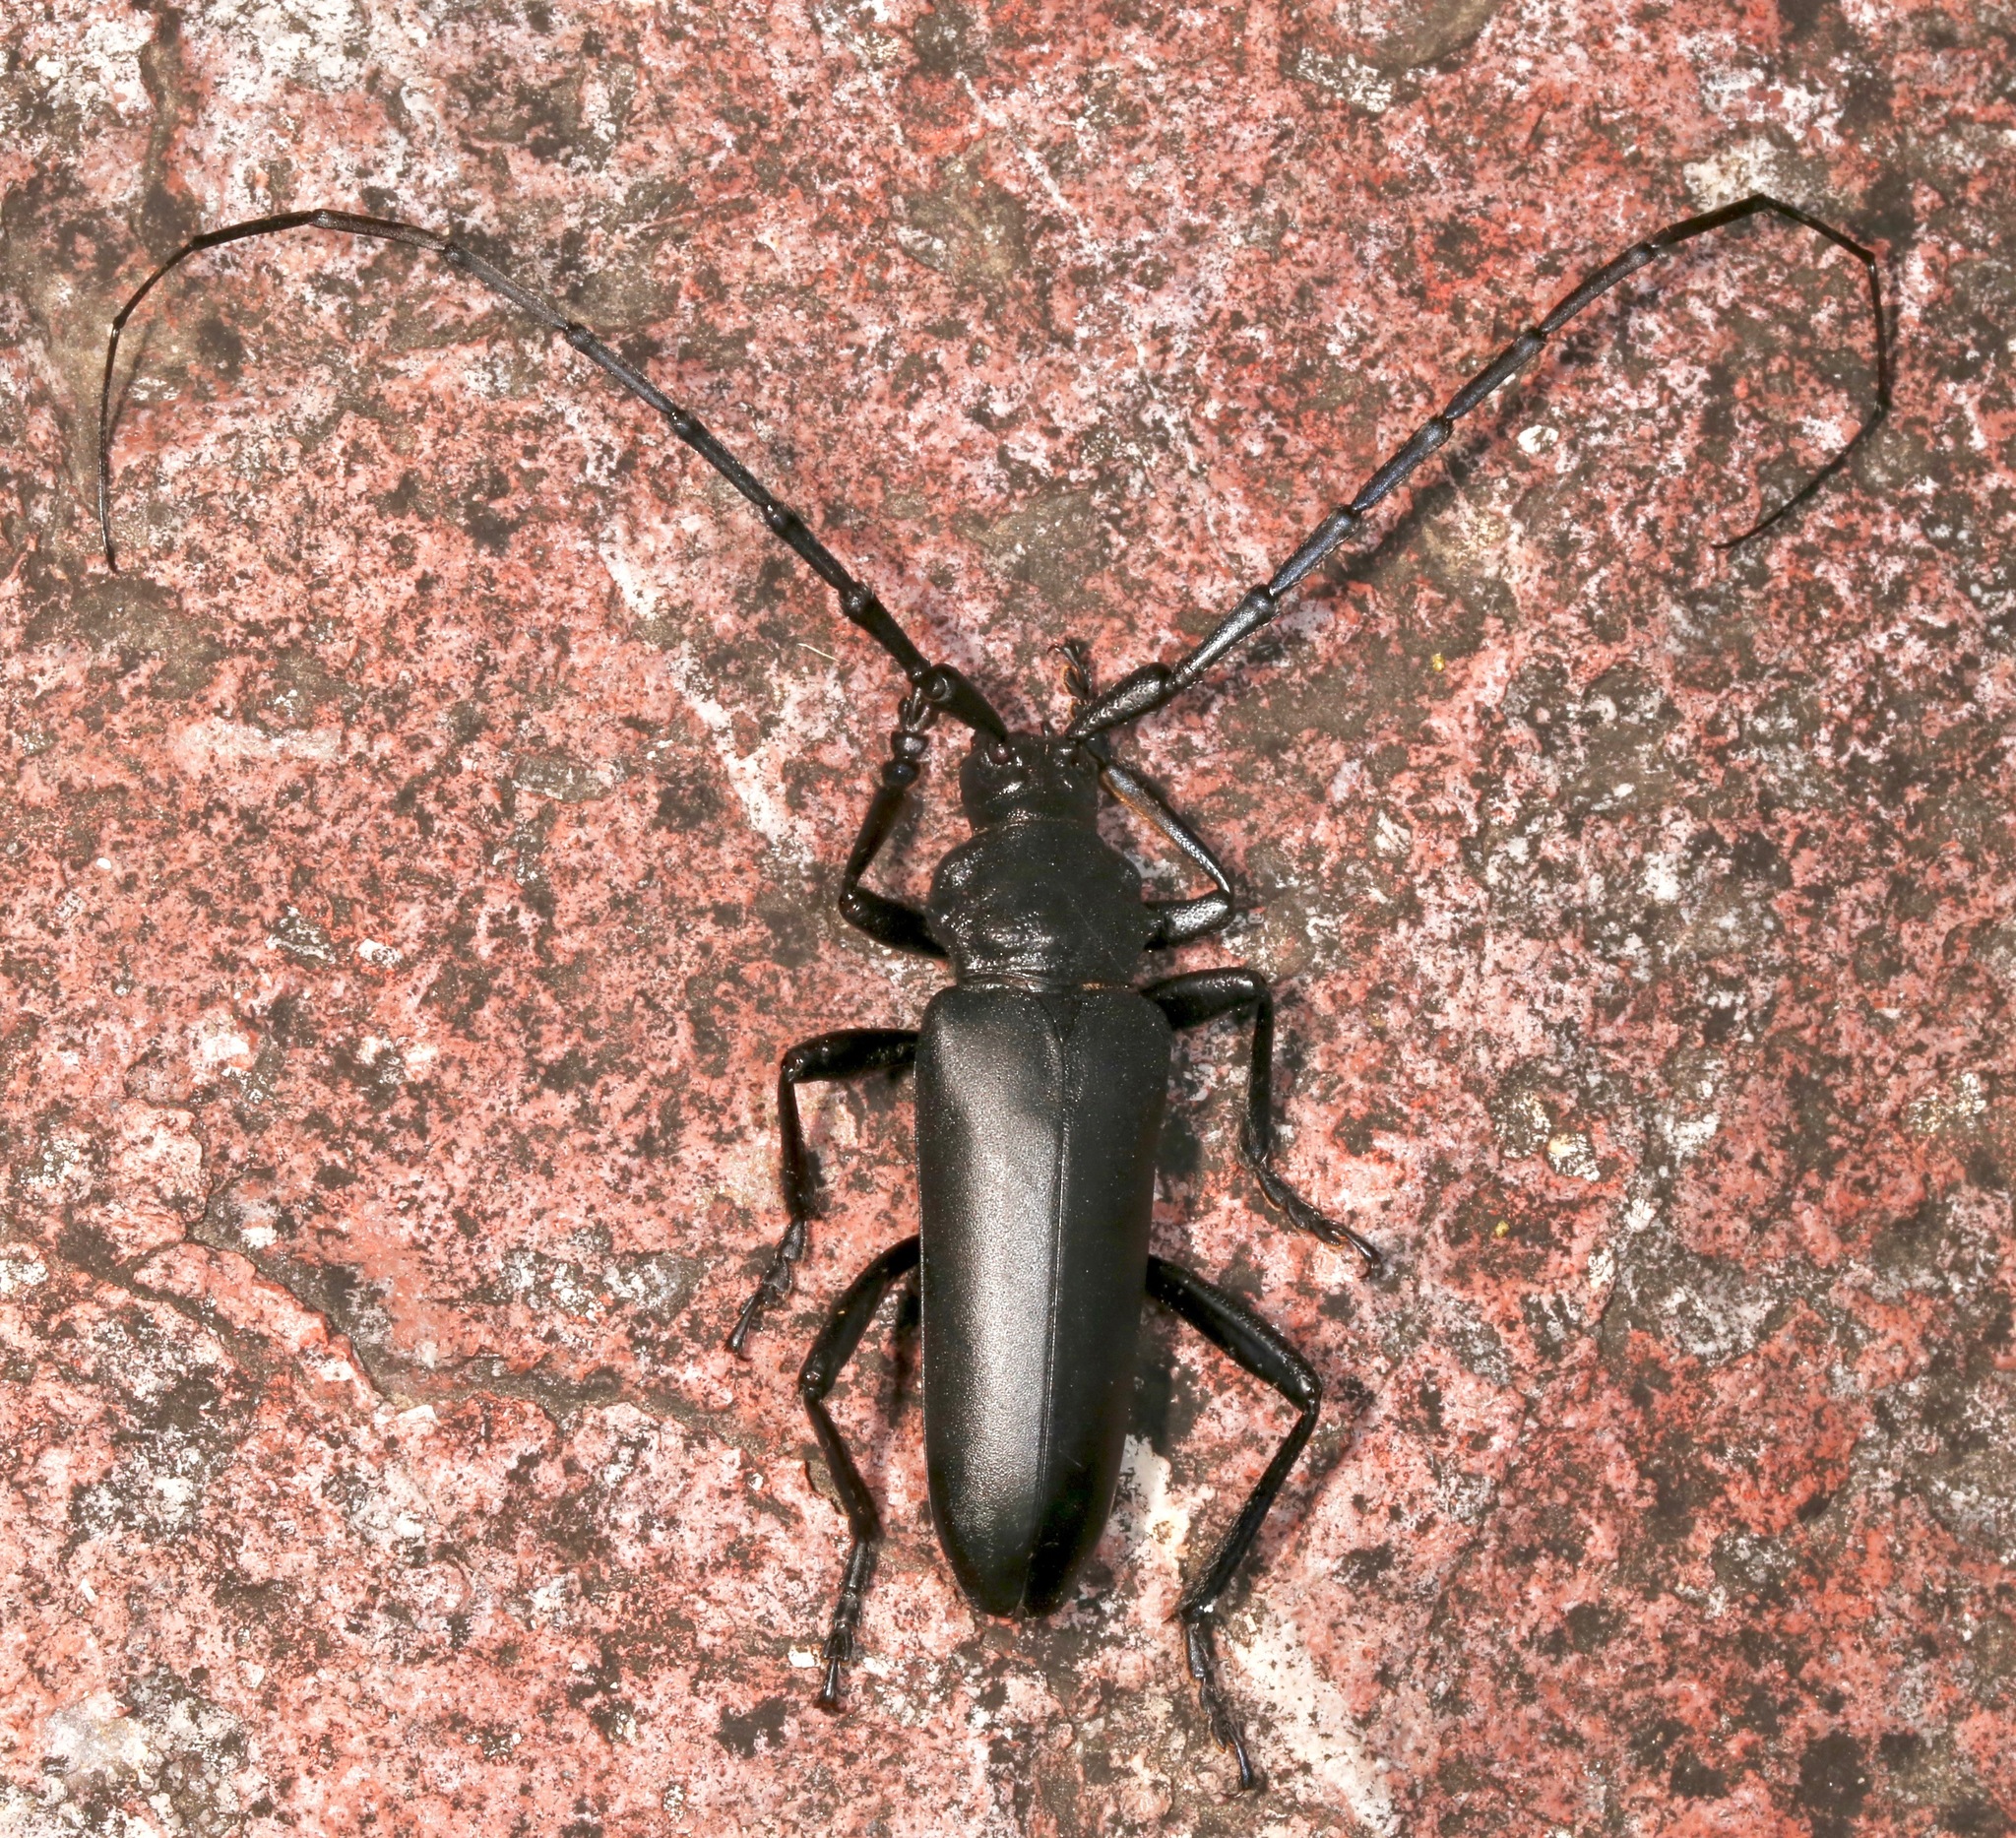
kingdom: Animalia
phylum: Arthropoda
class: Insecta
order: Coleoptera
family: Cerambycidae
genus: Stenaspis
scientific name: Stenaspis solitaria
